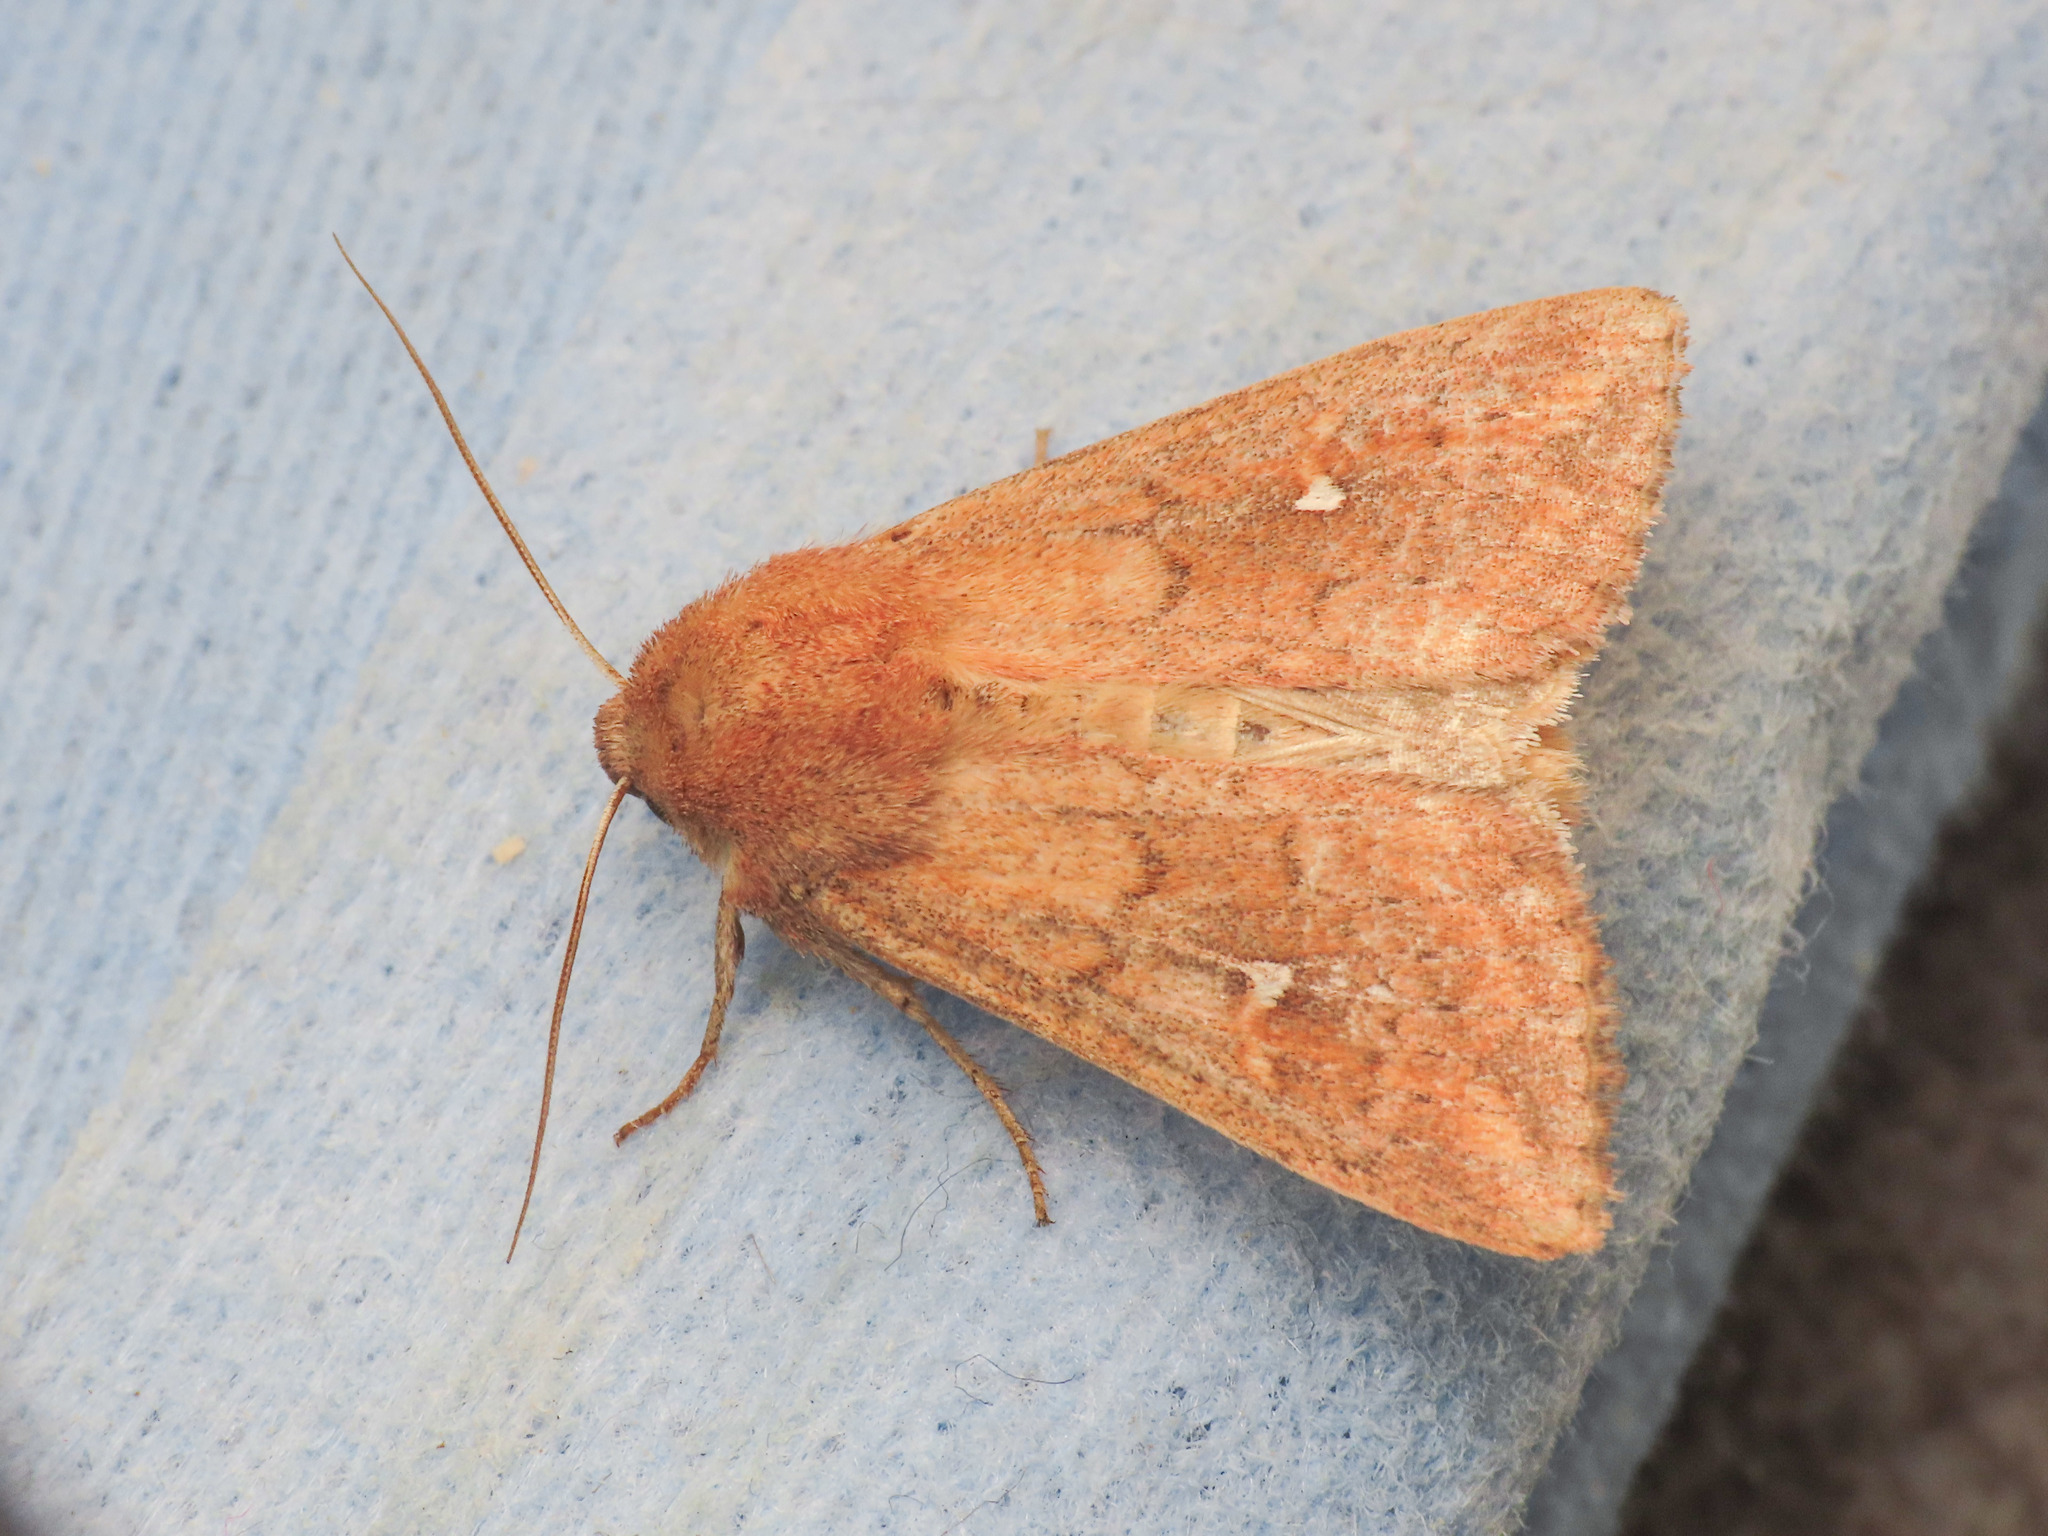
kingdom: Animalia
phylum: Arthropoda
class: Insecta
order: Lepidoptera
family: Noctuidae
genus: Mythimna
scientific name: Mythimna ferrago
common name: Clay
